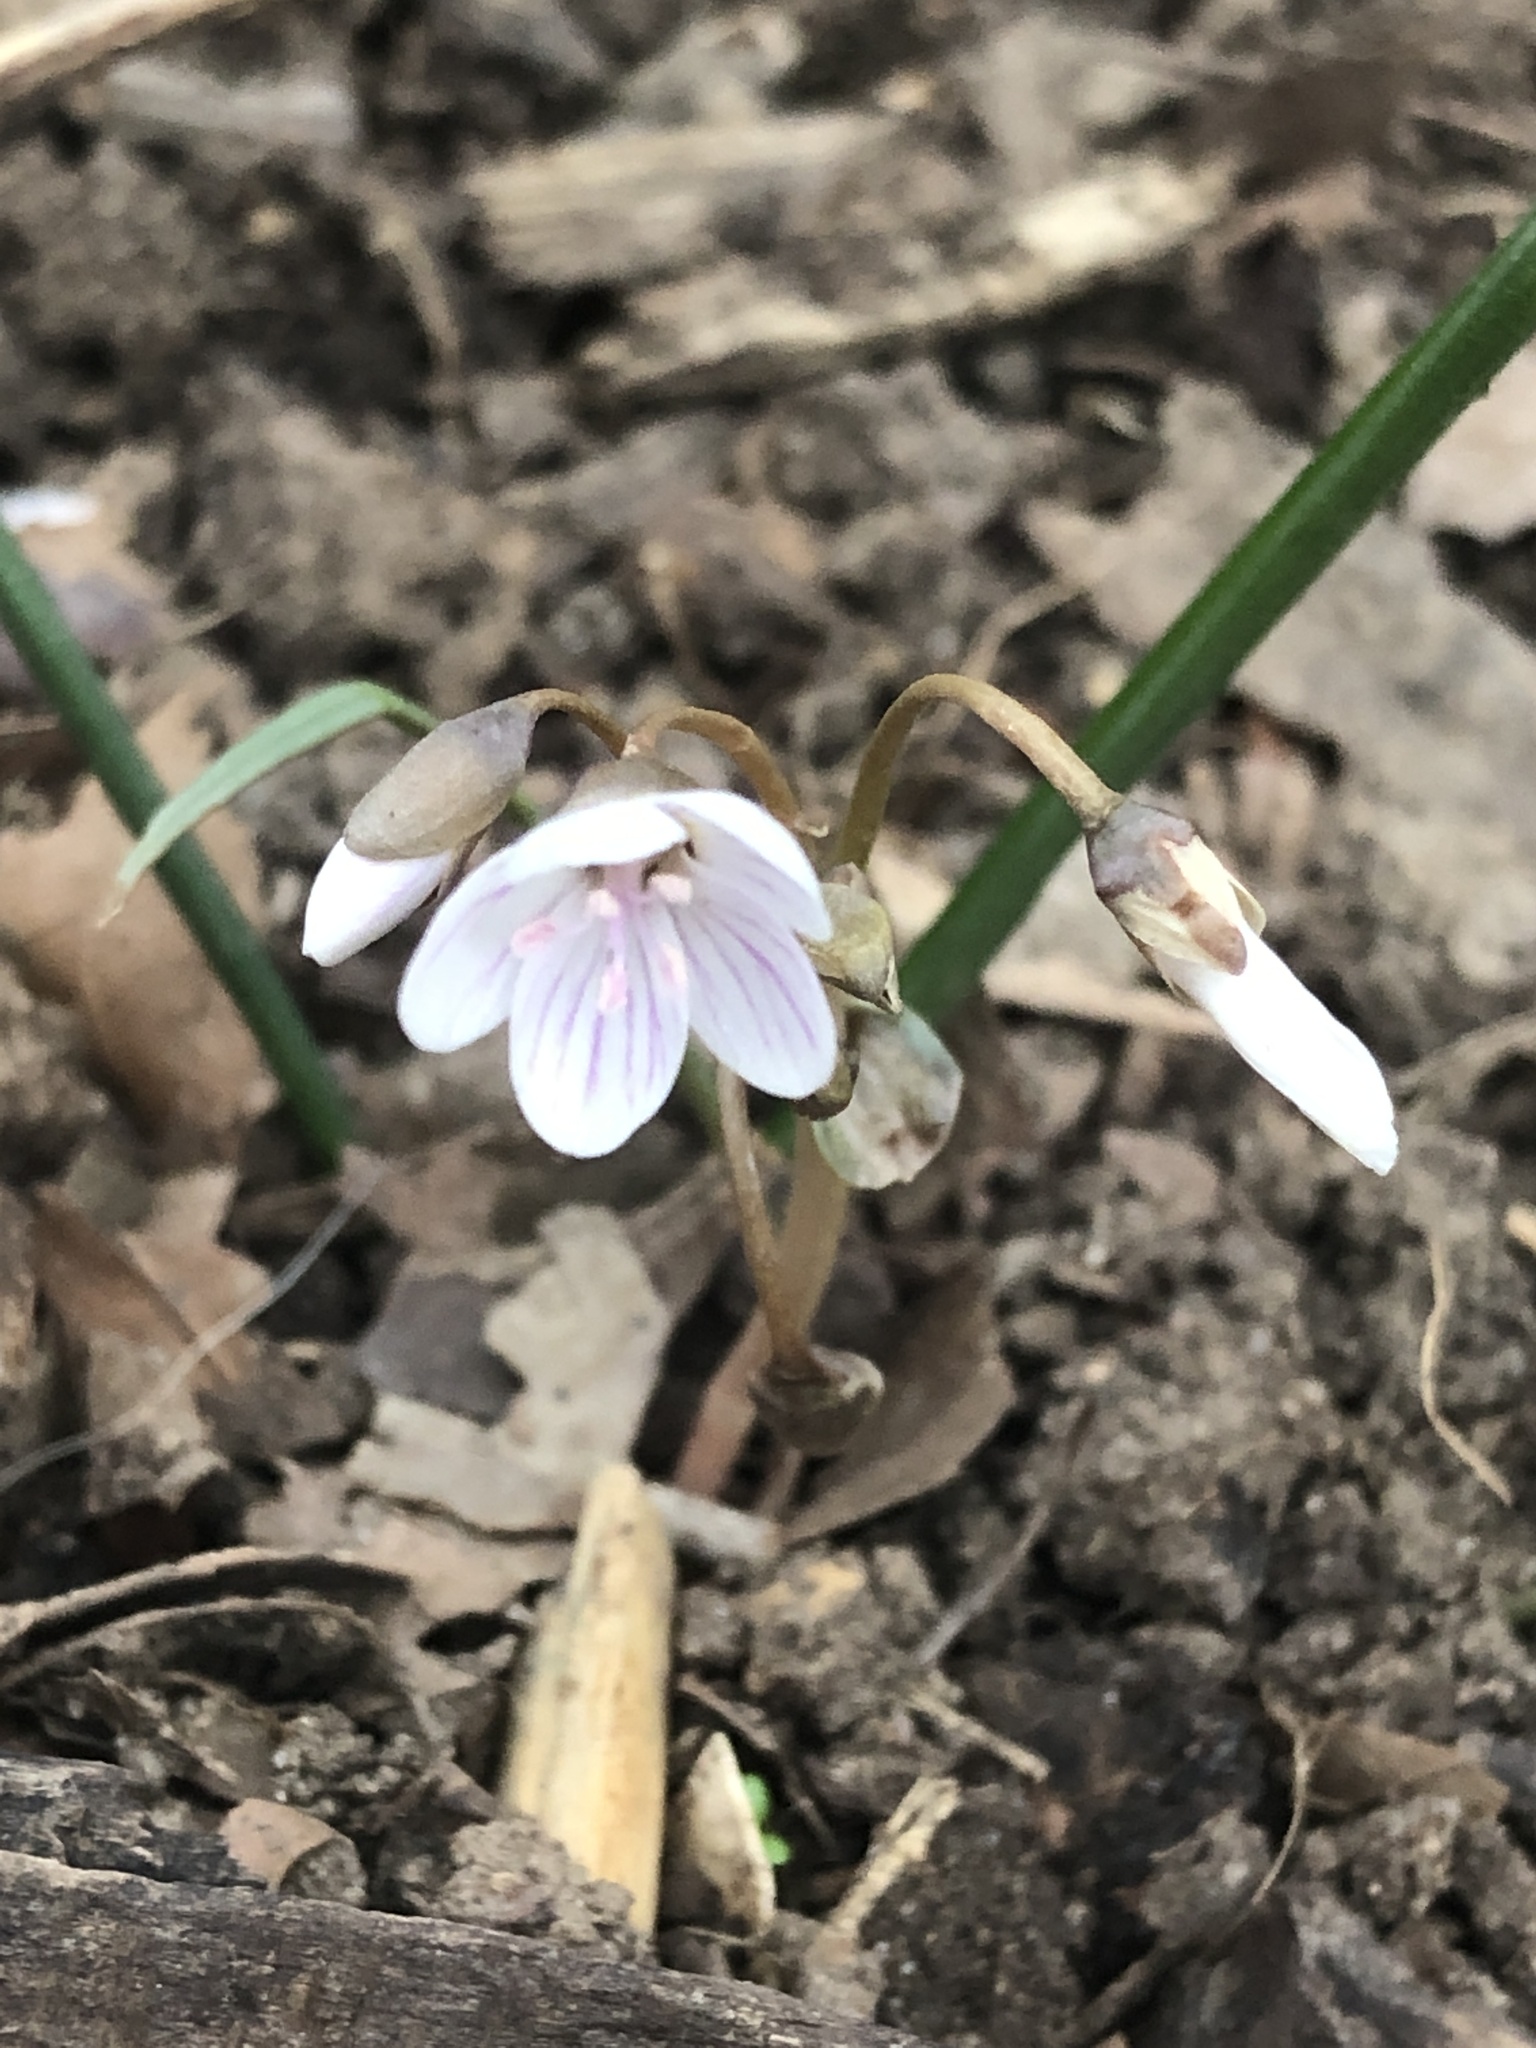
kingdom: Plantae
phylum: Tracheophyta
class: Magnoliopsida
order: Caryophyllales
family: Montiaceae
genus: Claytonia
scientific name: Claytonia virginica
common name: Virginia springbeauty
